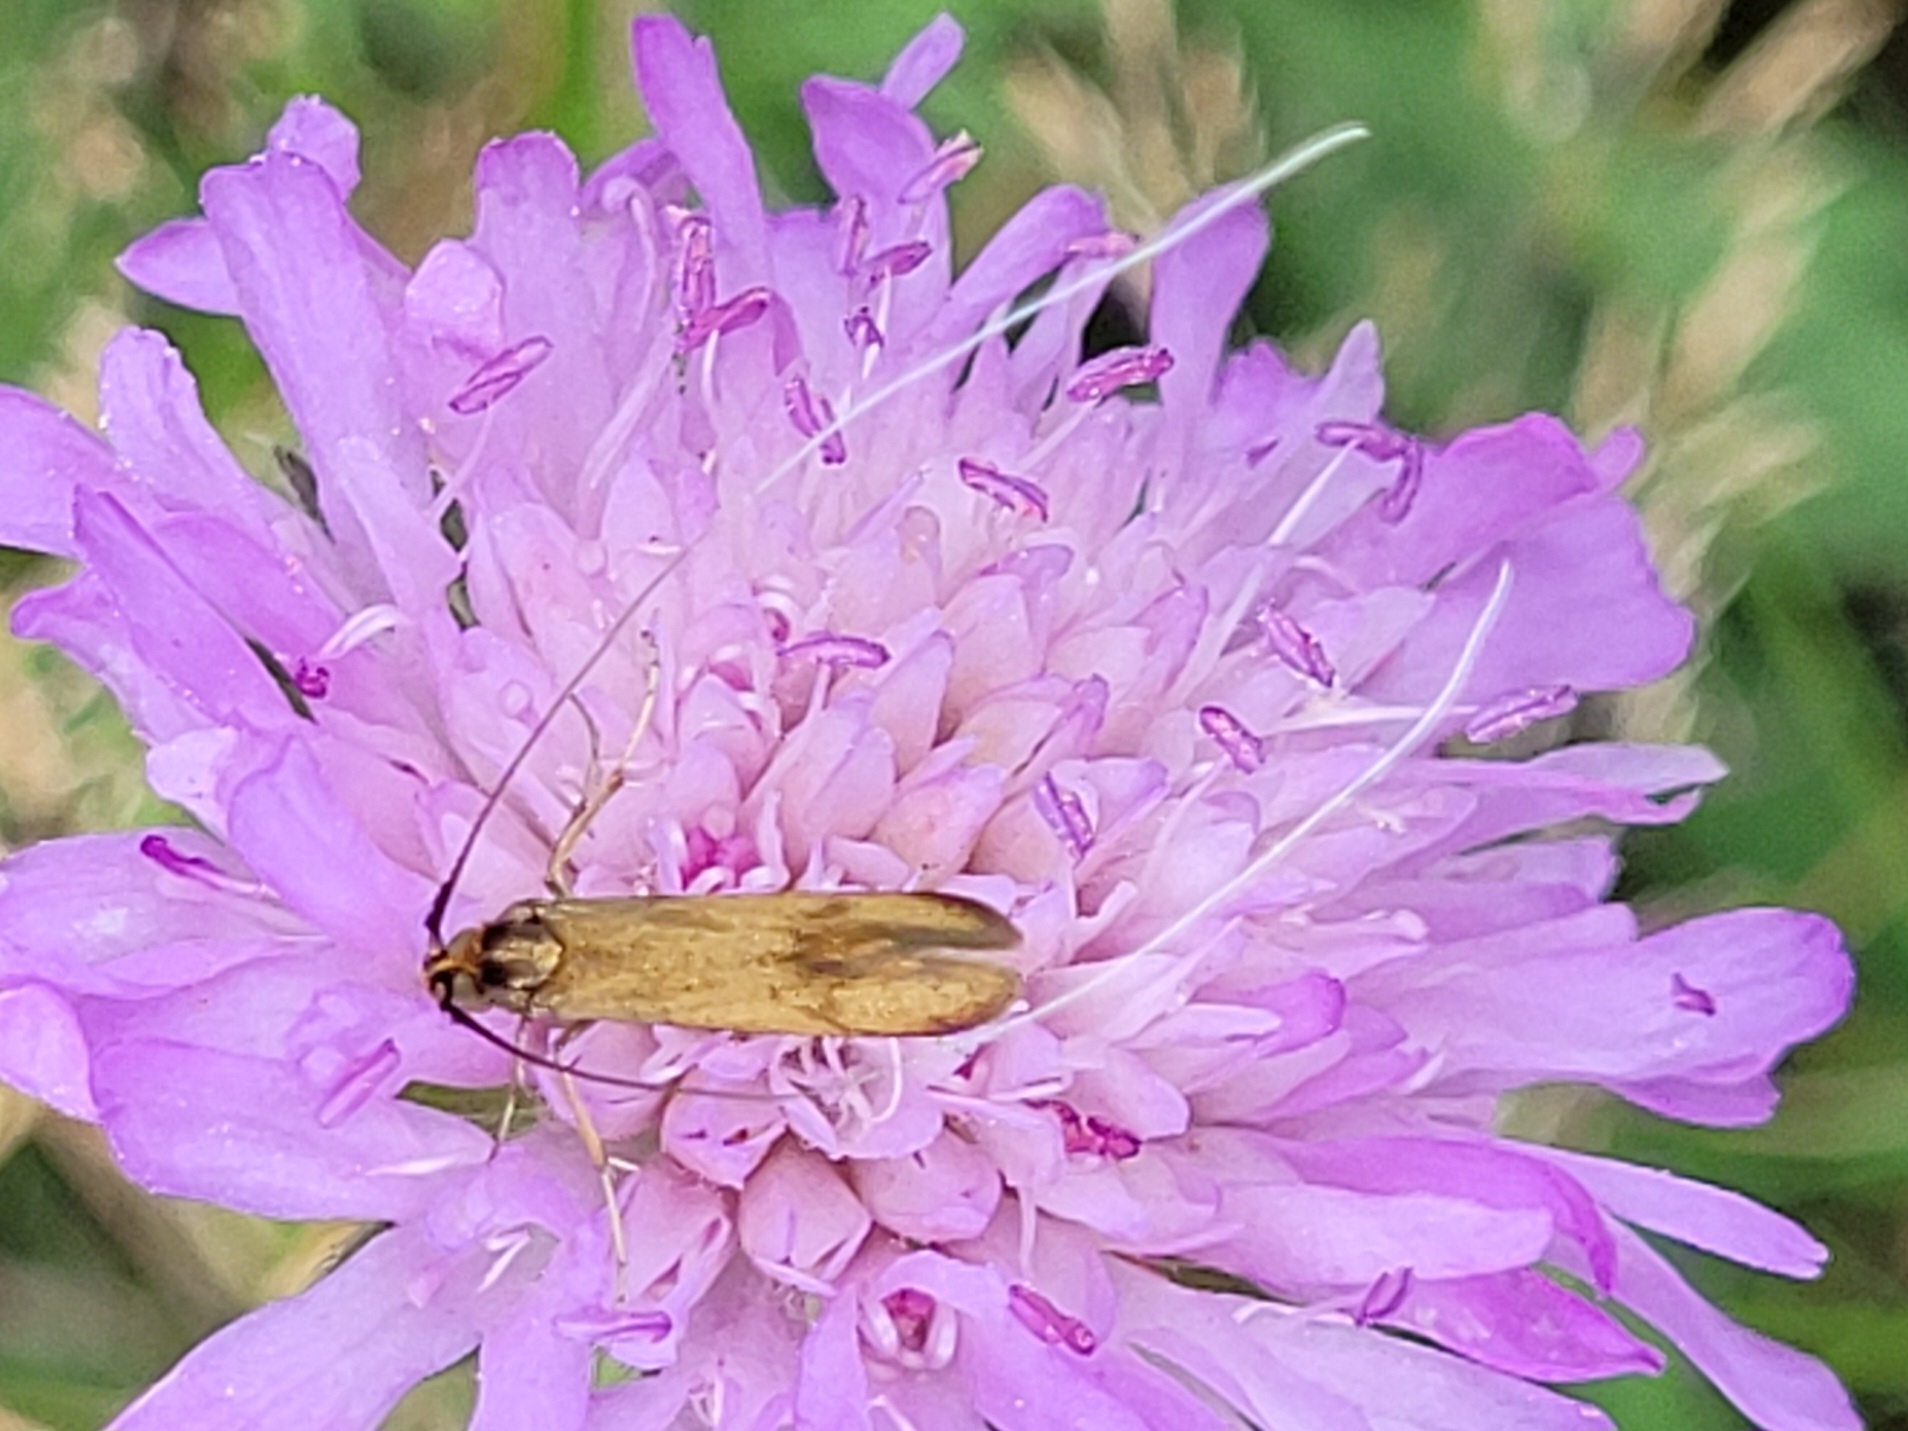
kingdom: Animalia
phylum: Arthropoda
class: Insecta
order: Lepidoptera
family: Adelidae
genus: Nemophora
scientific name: Nemophora metallica
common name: Brassy long-horn
